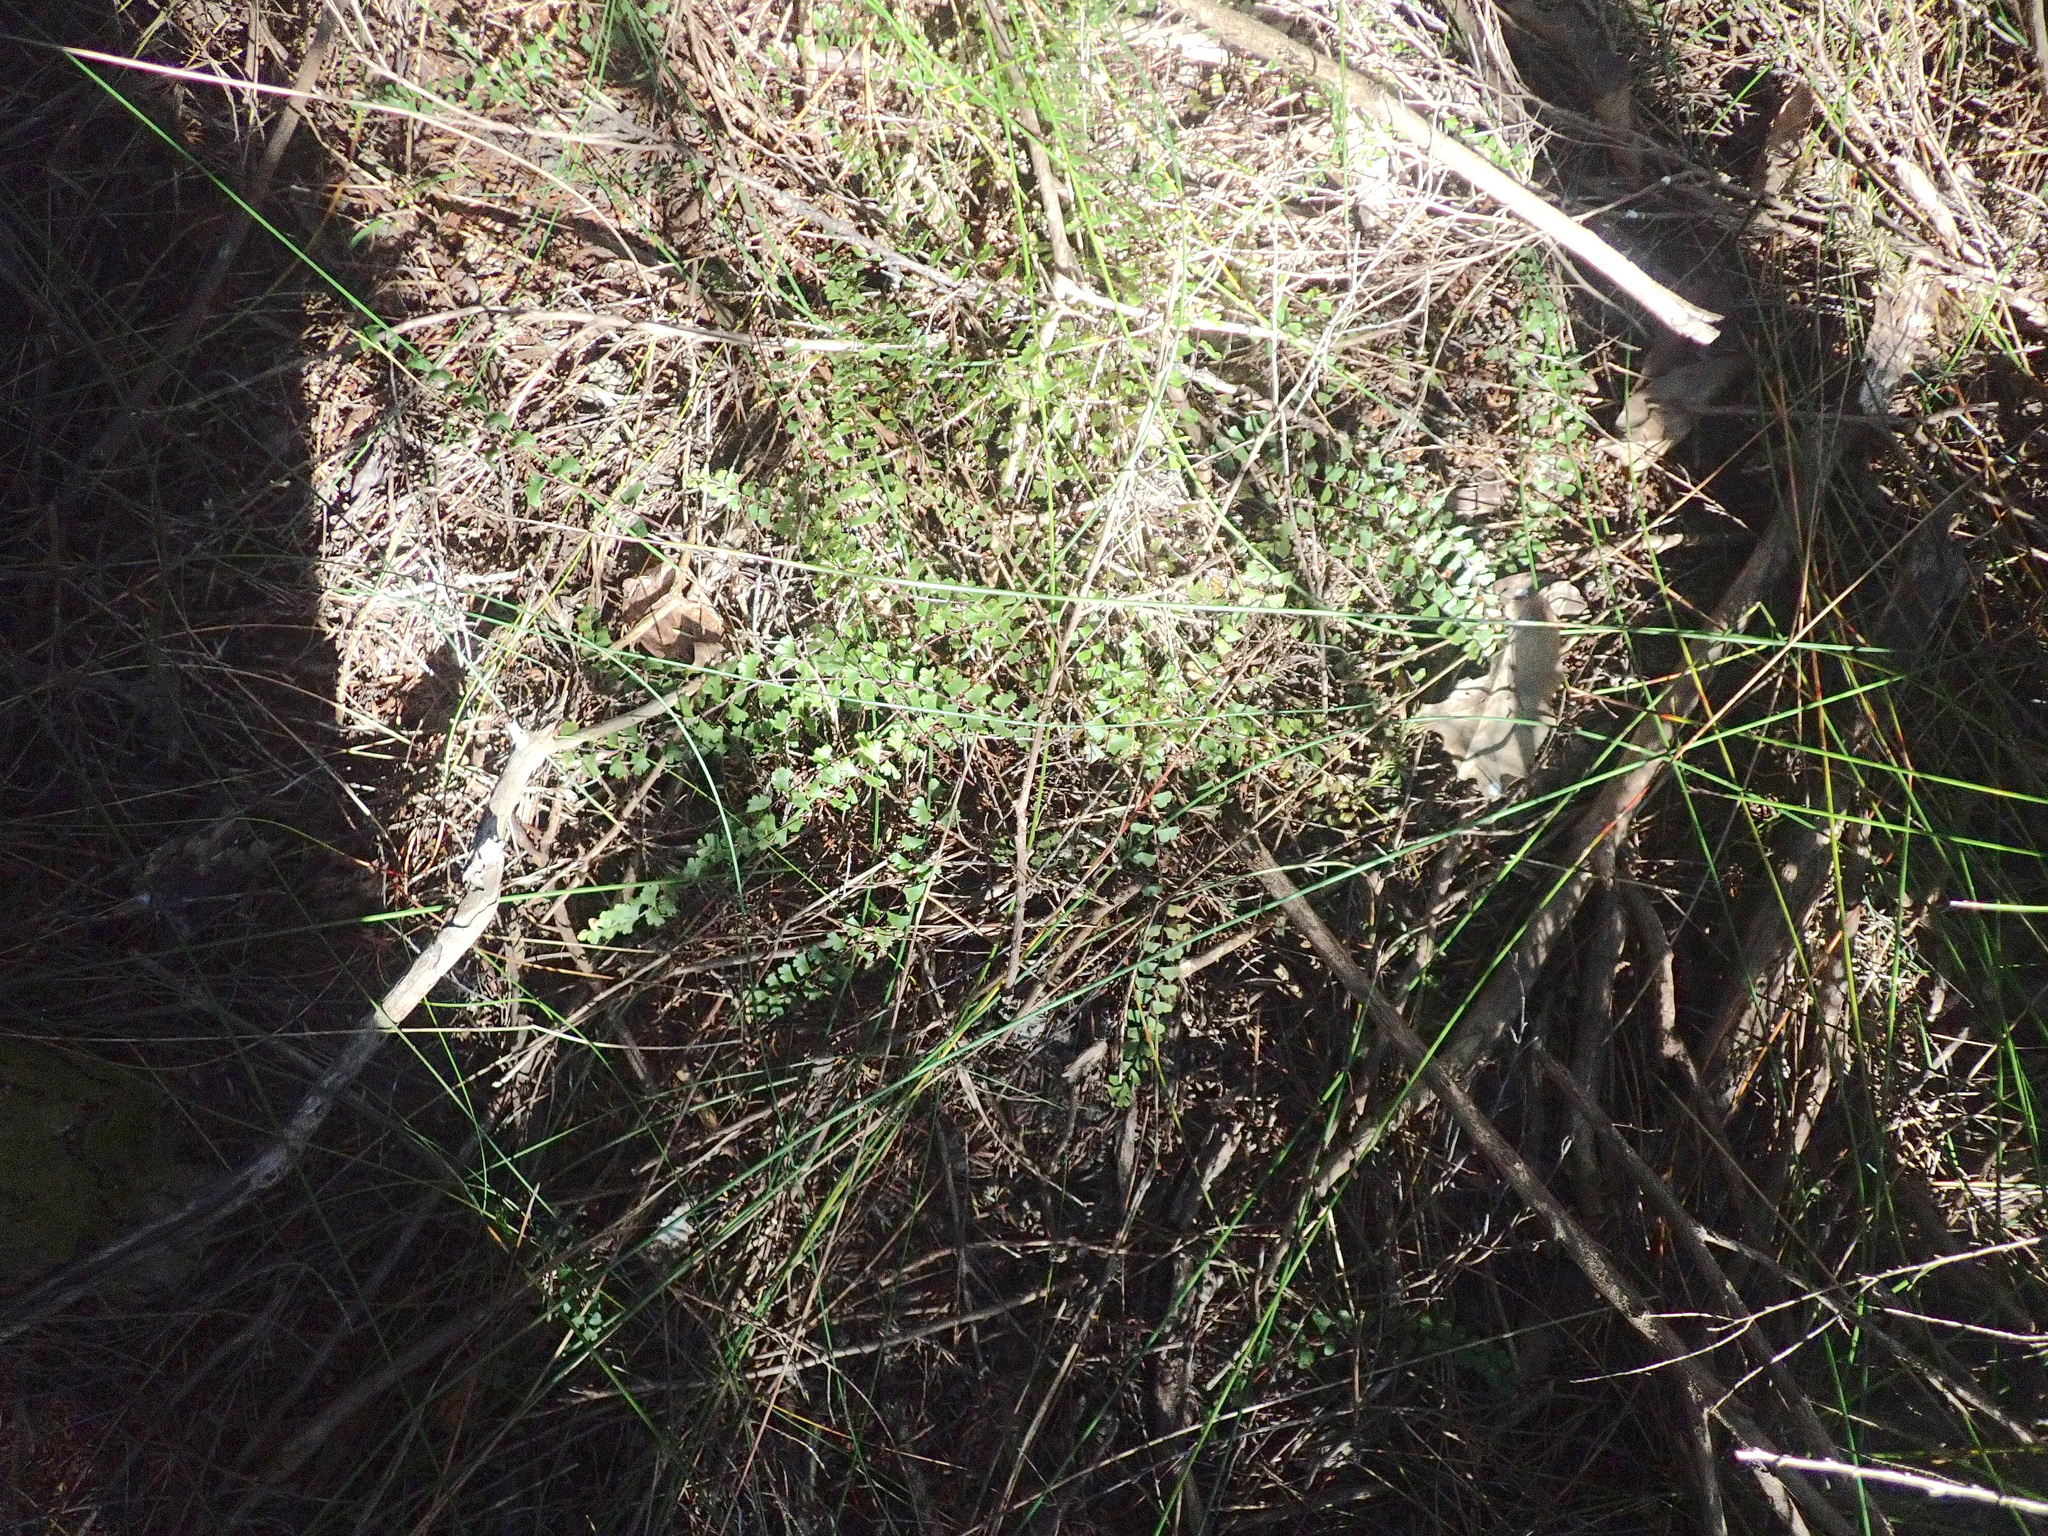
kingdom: Plantae
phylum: Tracheophyta
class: Polypodiopsida
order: Polypodiales
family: Lindsaeaceae
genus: Lindsaea
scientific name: Lindsaea linearis
